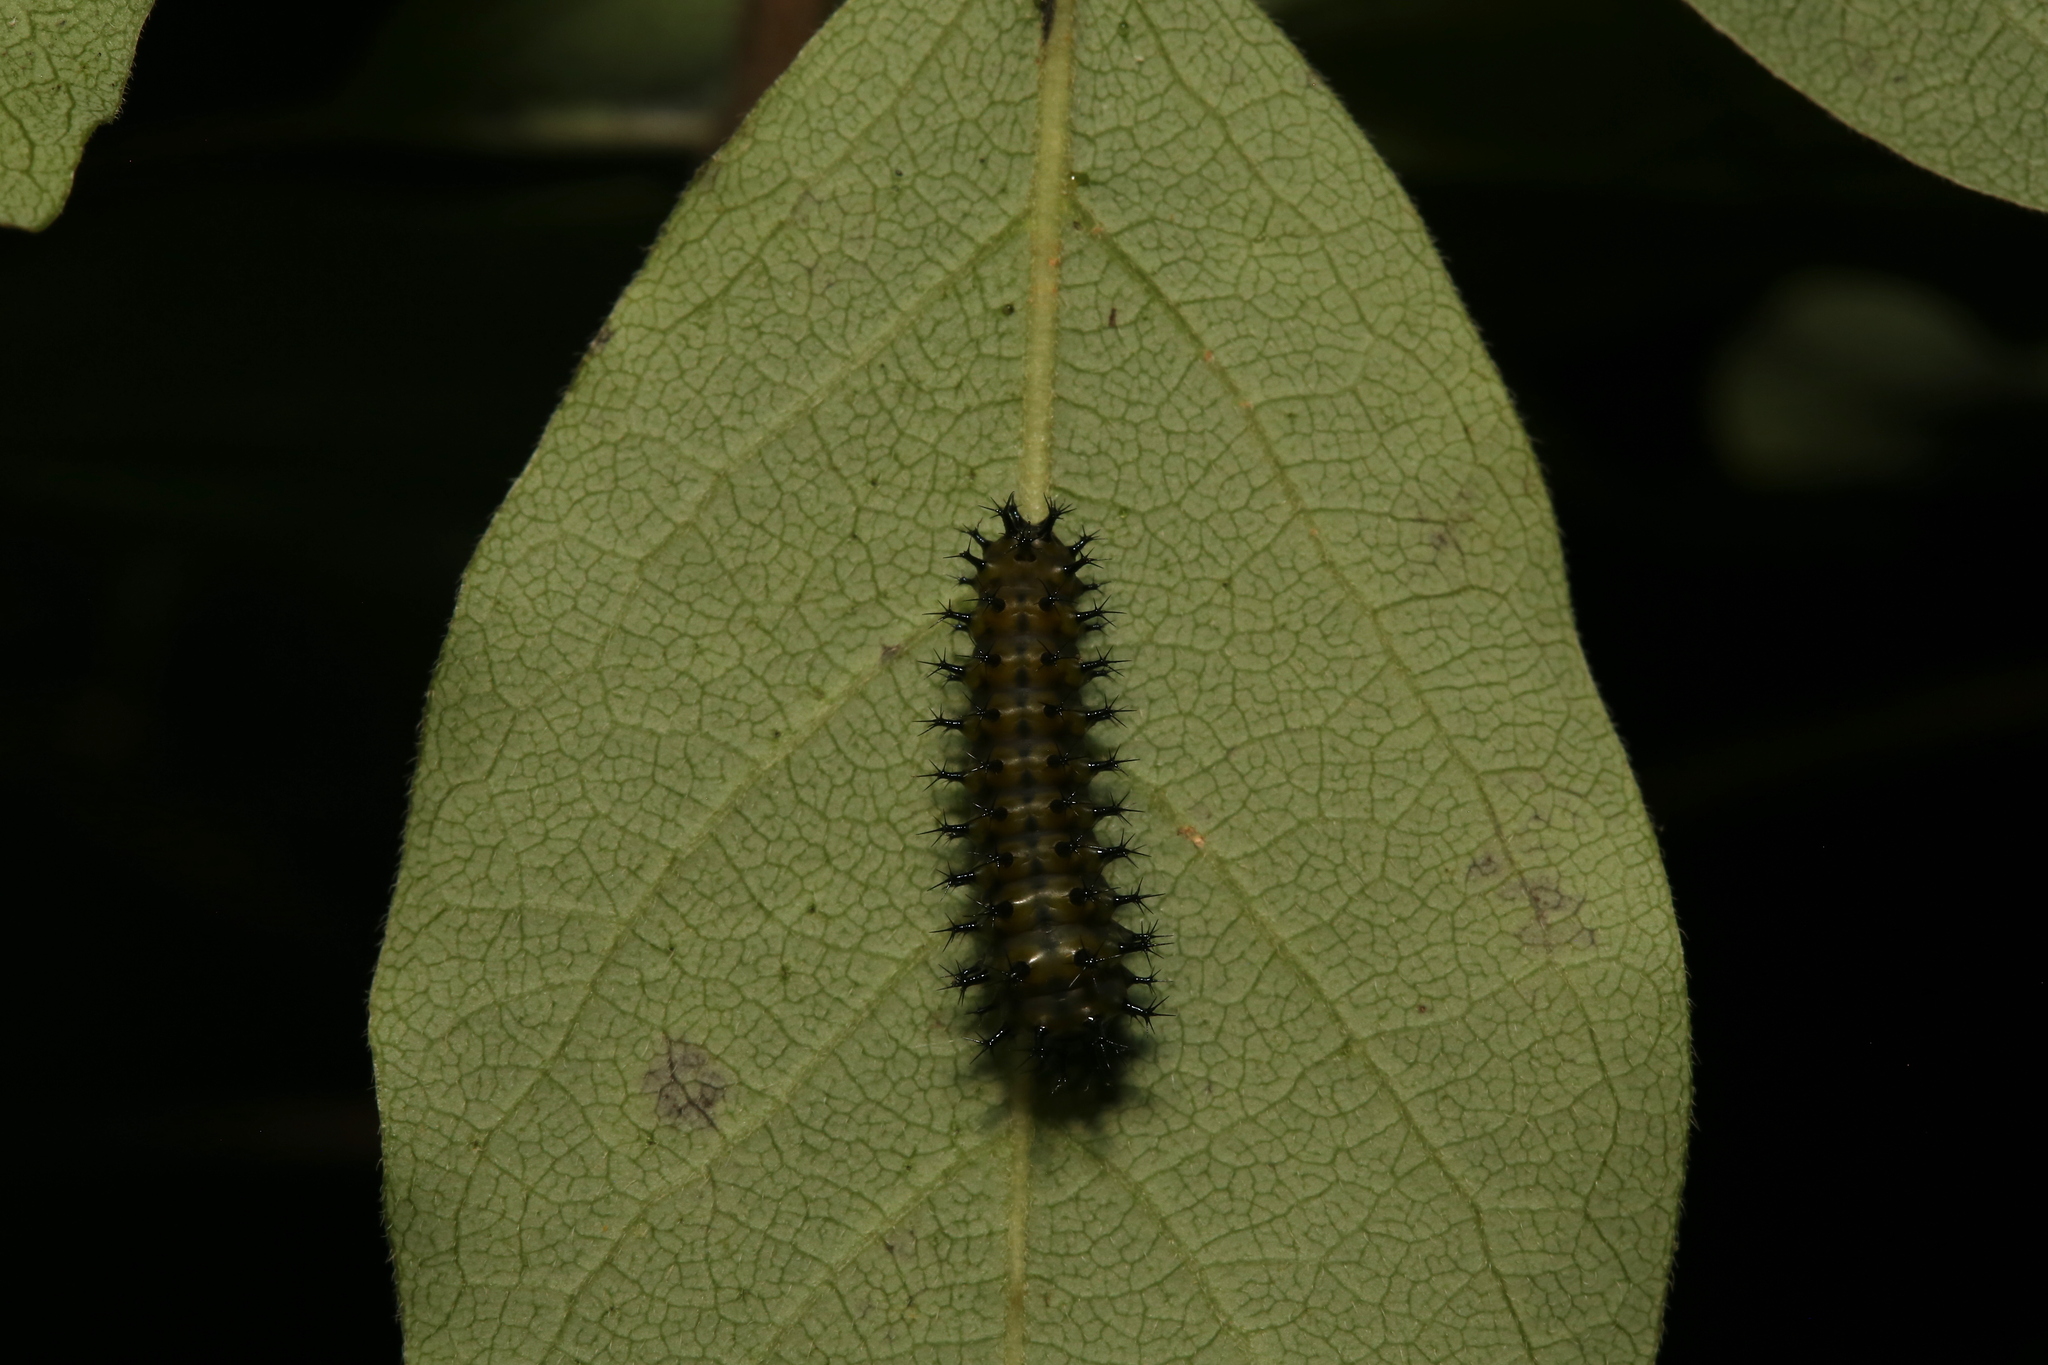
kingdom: Animalia
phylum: Arthropoda
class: Insecta
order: Lepidoptera
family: Saturniidae
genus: Hyalophora
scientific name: Hyalophora cecropia
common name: Cecropia silkmoth
